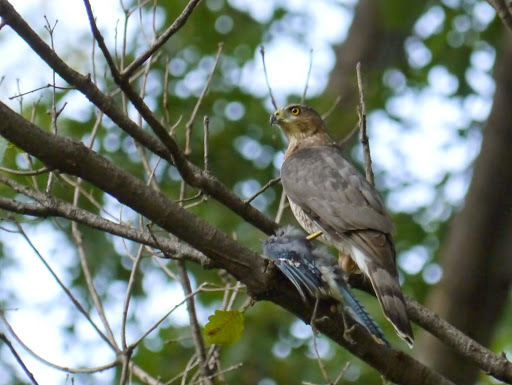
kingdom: Animalia
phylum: Chordata
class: Aves
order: Passeriformes
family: Corvidae
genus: Cyanocitta
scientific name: Cyanocitta cristata
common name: Blue jay
